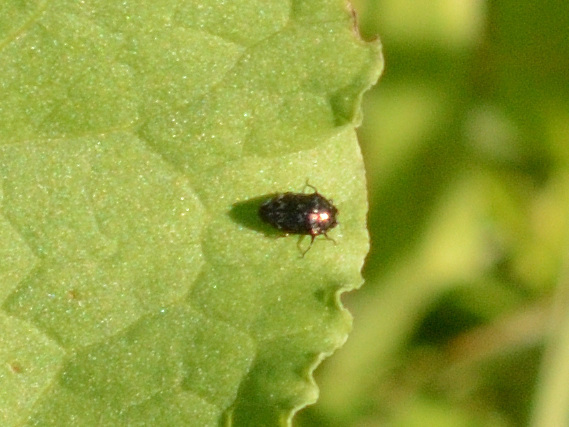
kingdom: Animalia
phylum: Arthropoda
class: Insecta
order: Coleoptera
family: Buprestidae
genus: Trachys
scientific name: Trachys minutus
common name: Metallic wood-boring beetle
